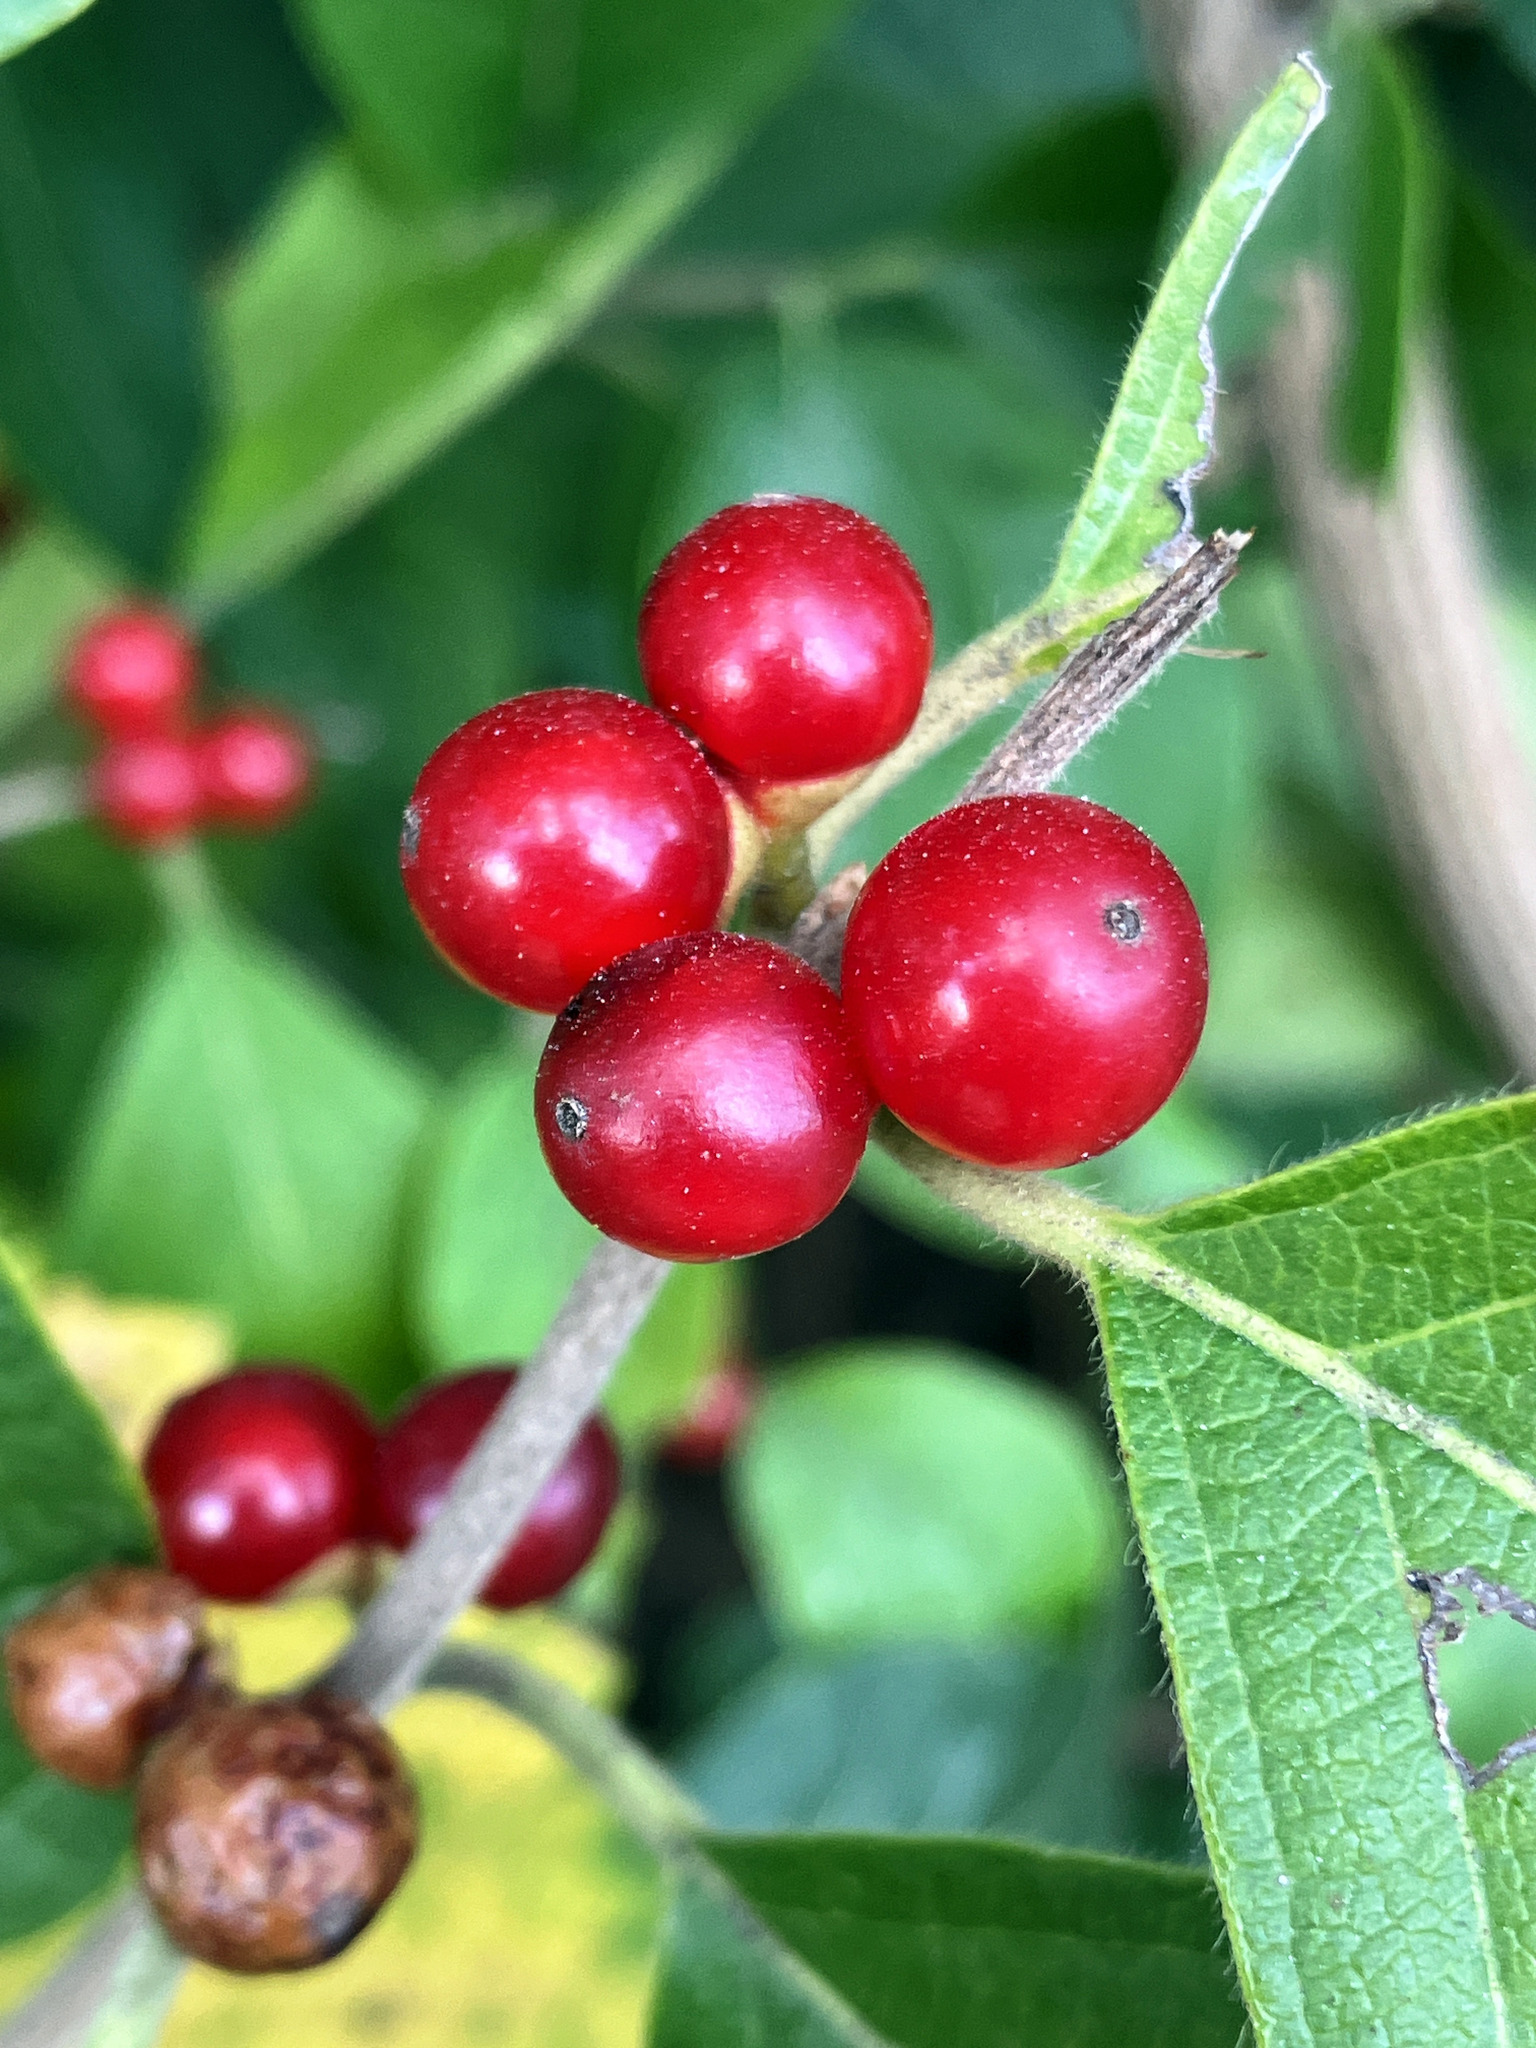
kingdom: Plantae
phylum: Tracheophyta
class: Magnoliopsida
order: Dipsacales
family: Caprifoliaceae
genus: Lonicera
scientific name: Lonicera maackii
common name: Amur honeysuckle
